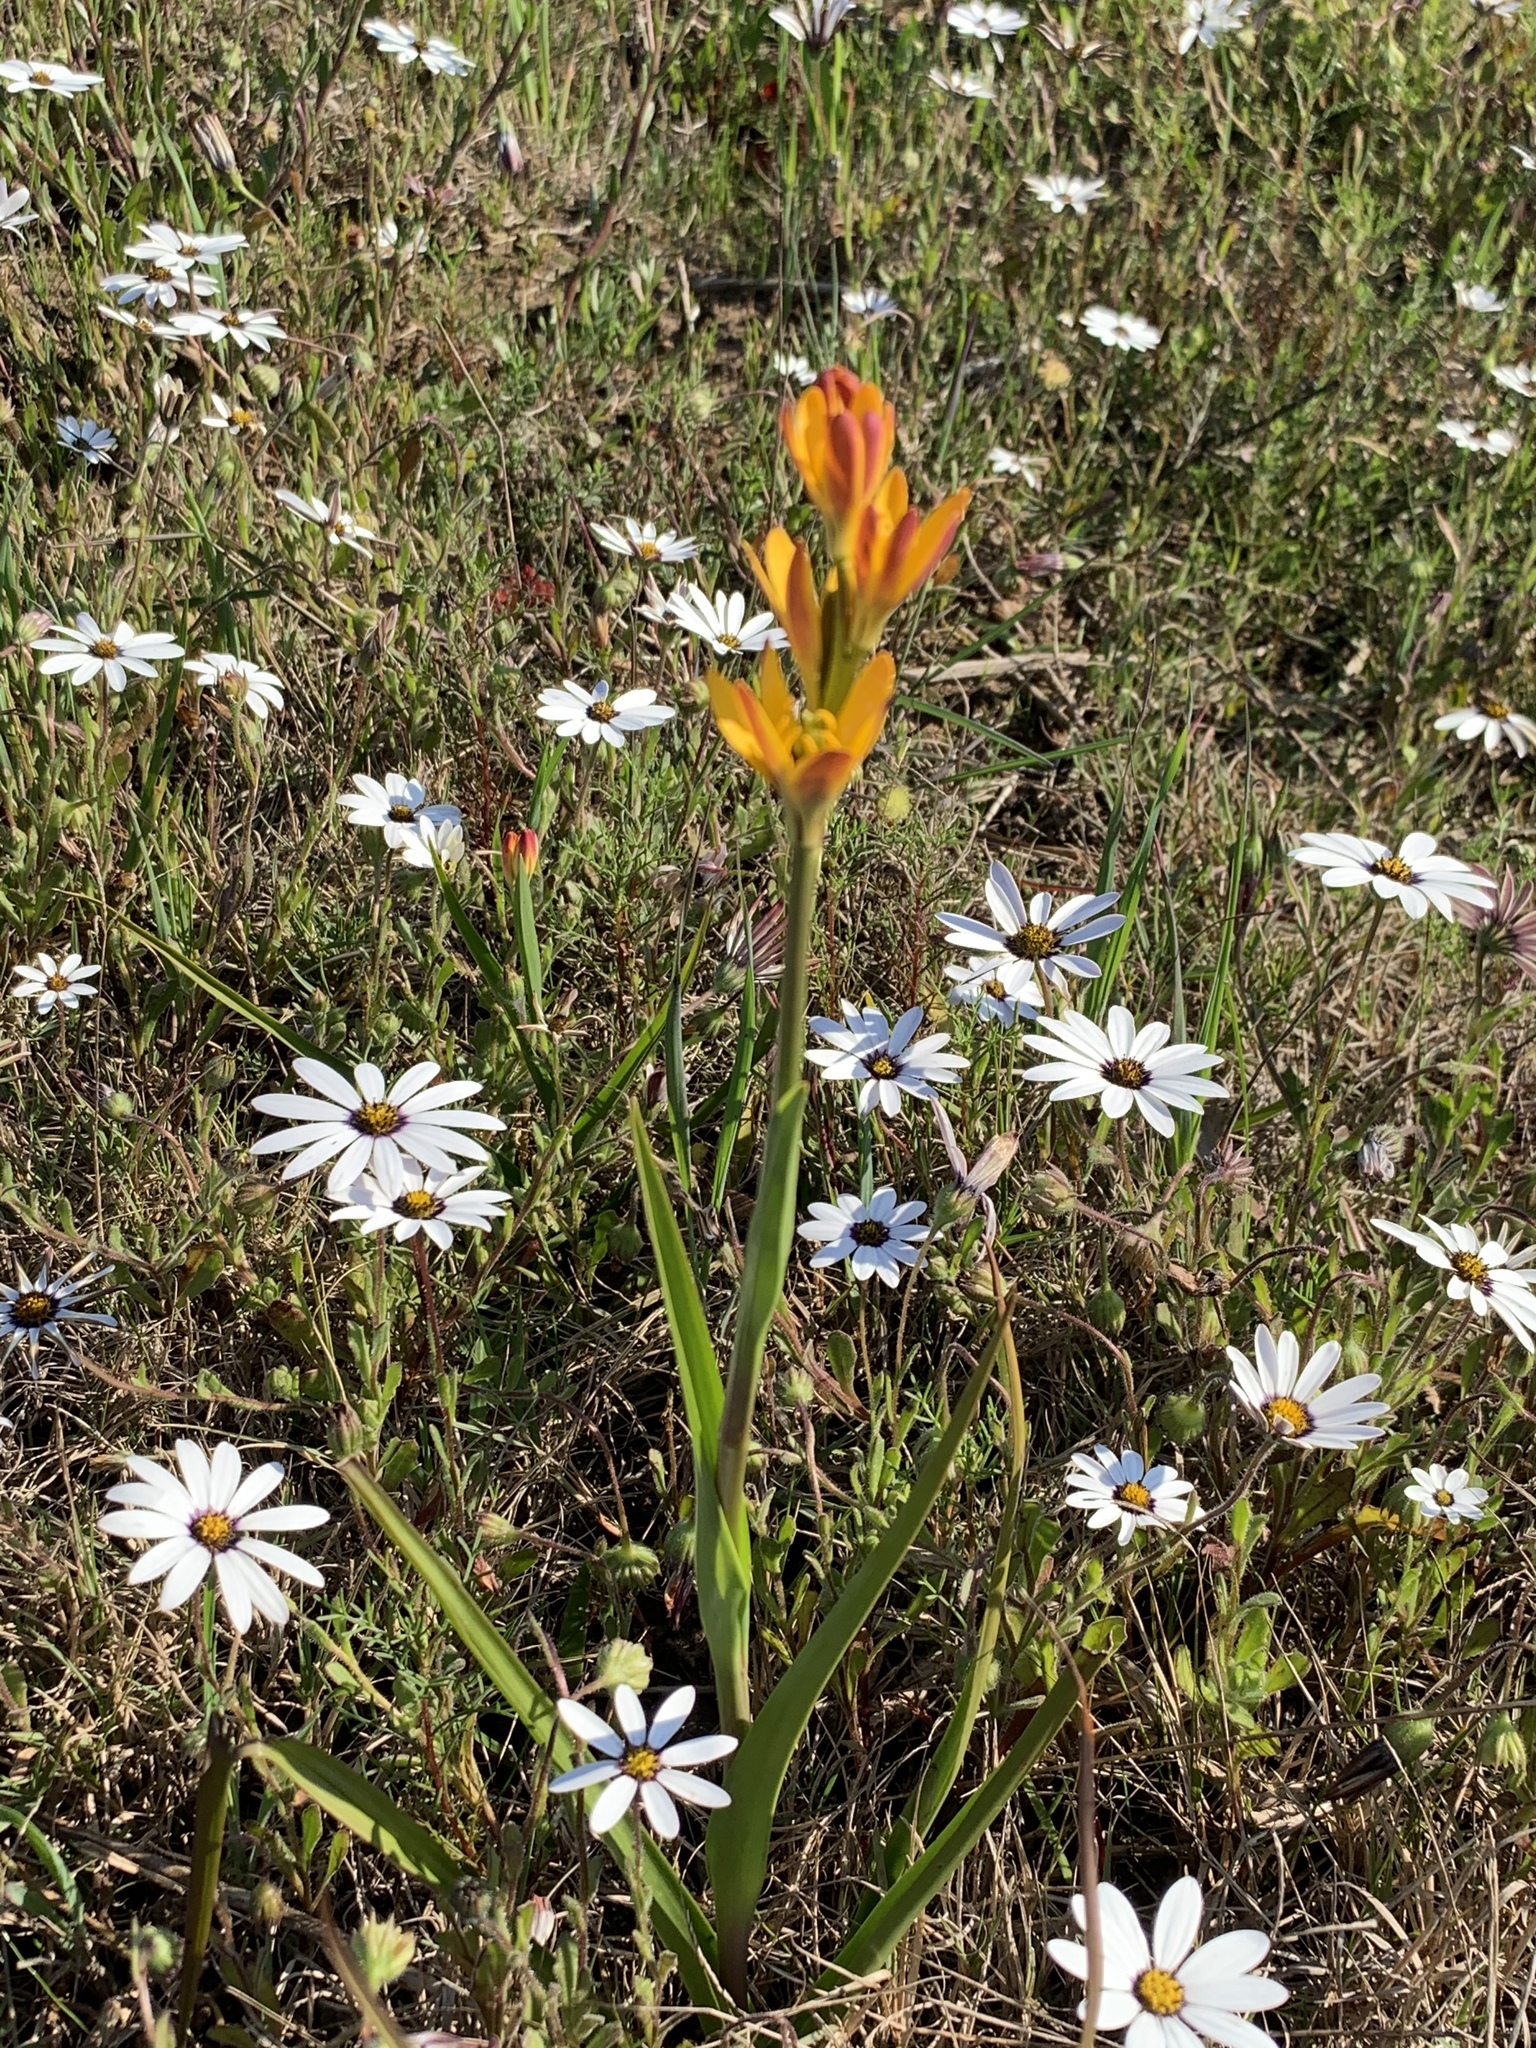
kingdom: Plantae
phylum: Tracheophyta
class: Liliopsida
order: Liliales
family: Colchicaceae
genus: Baeometra
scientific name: Baeometra uniflora
